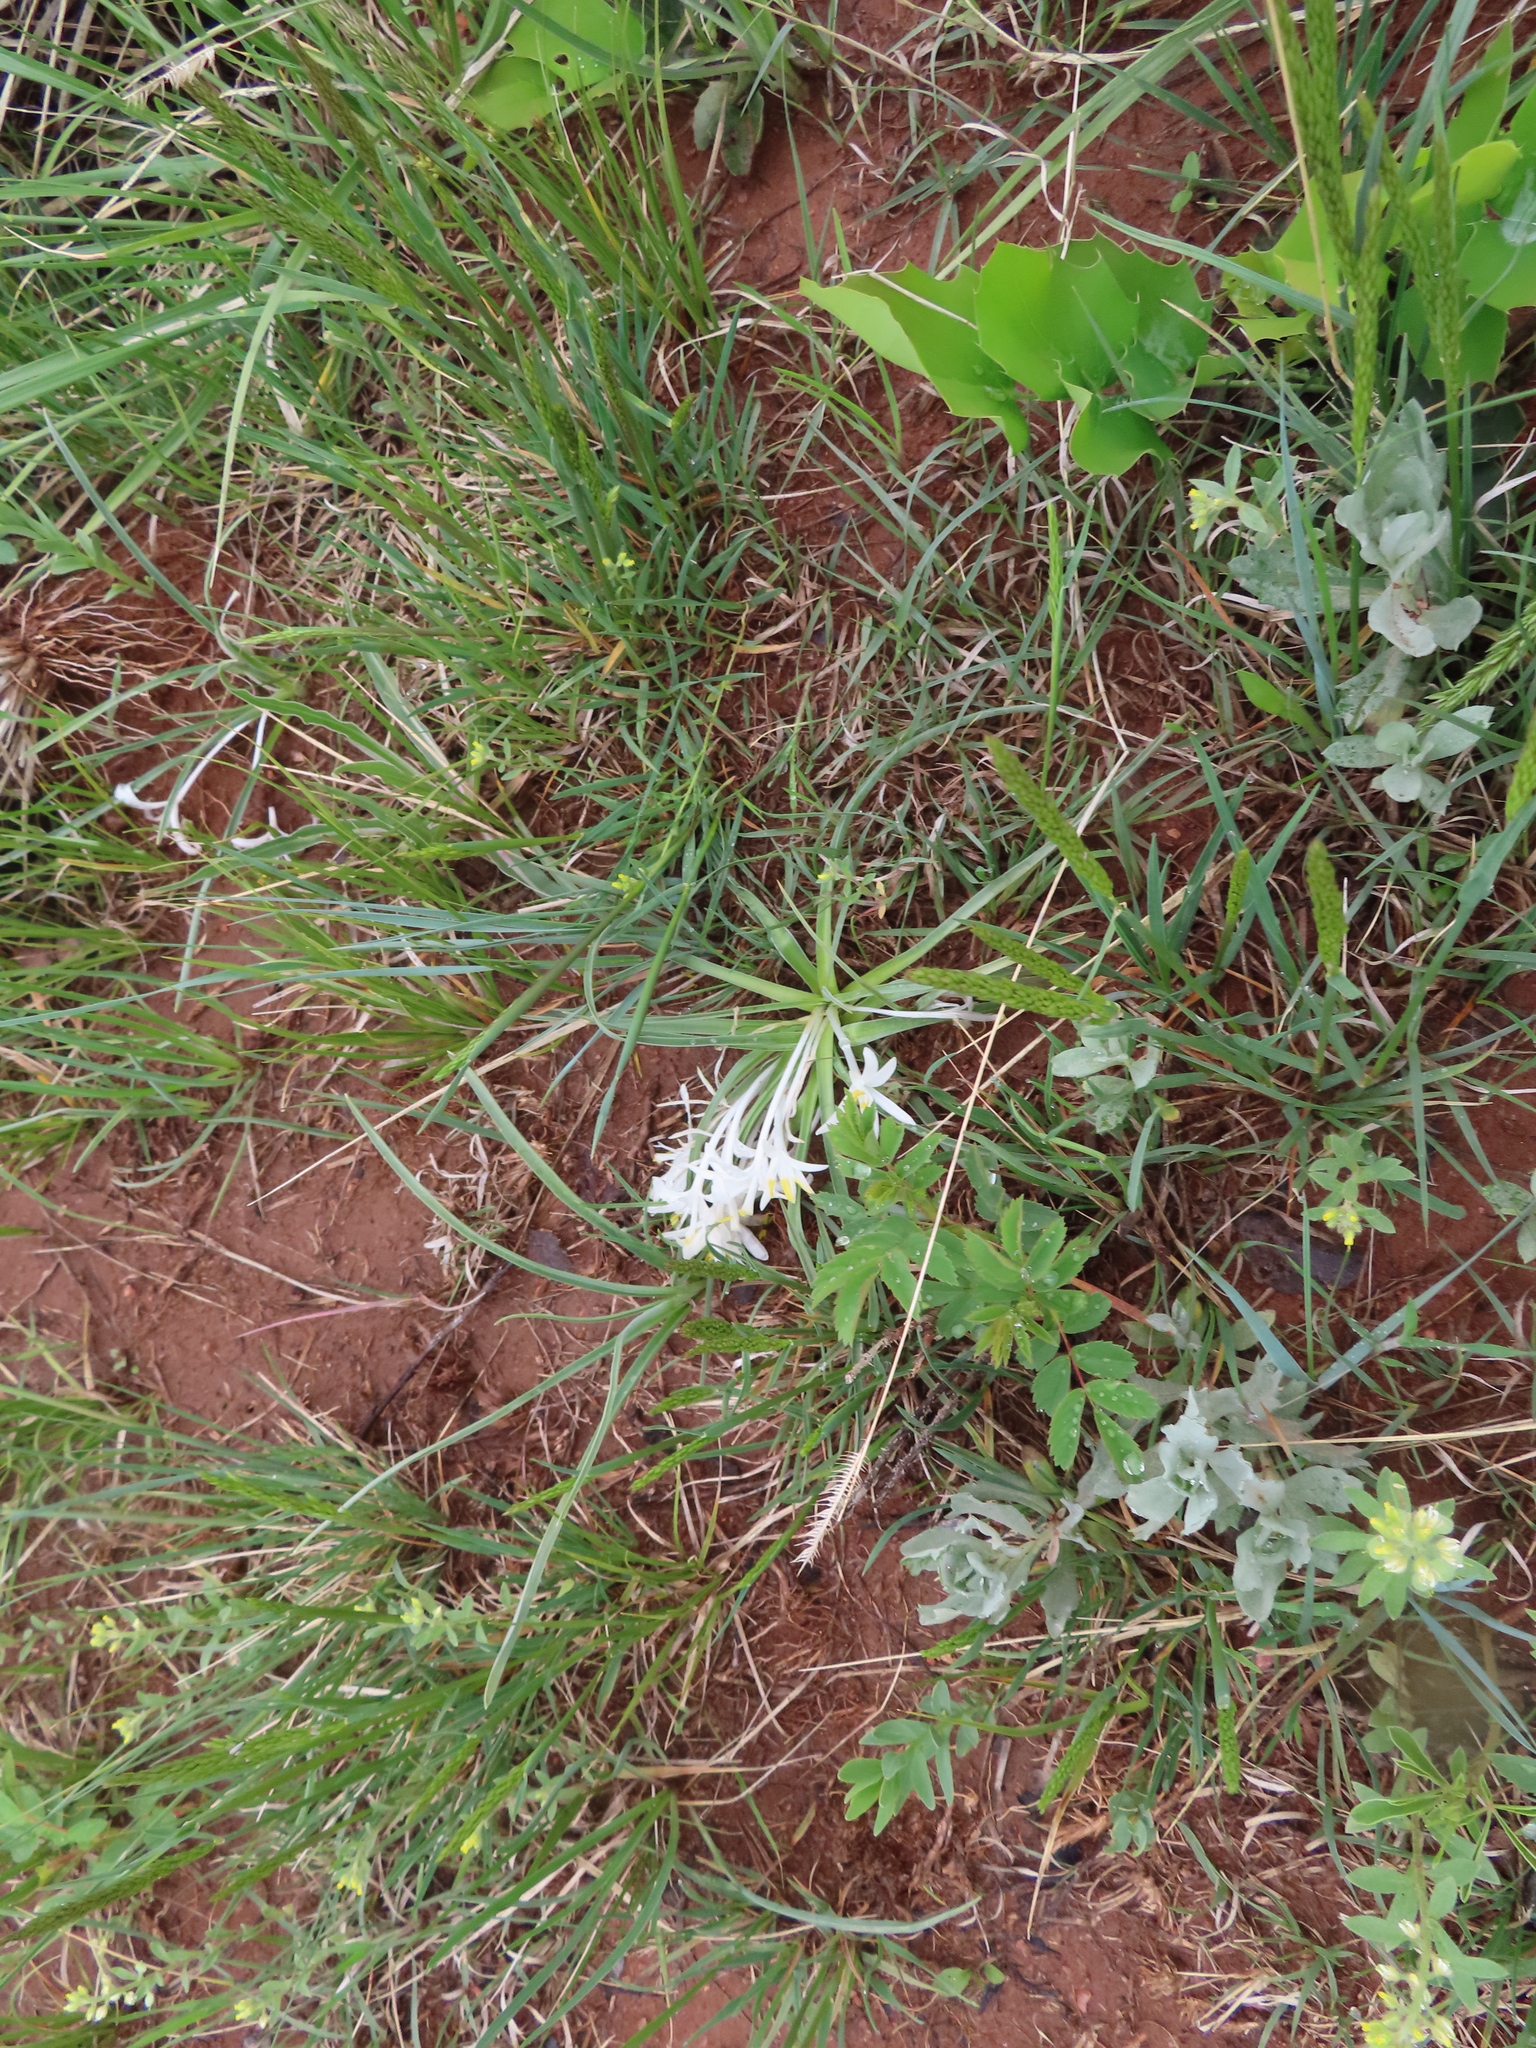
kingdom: Plantae
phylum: Tracheophyta
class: Liliopsida
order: Asparagales
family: Asparagaceae
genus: Leucocrinum
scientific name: Leucocrinum montanum
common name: Mountain-lily
